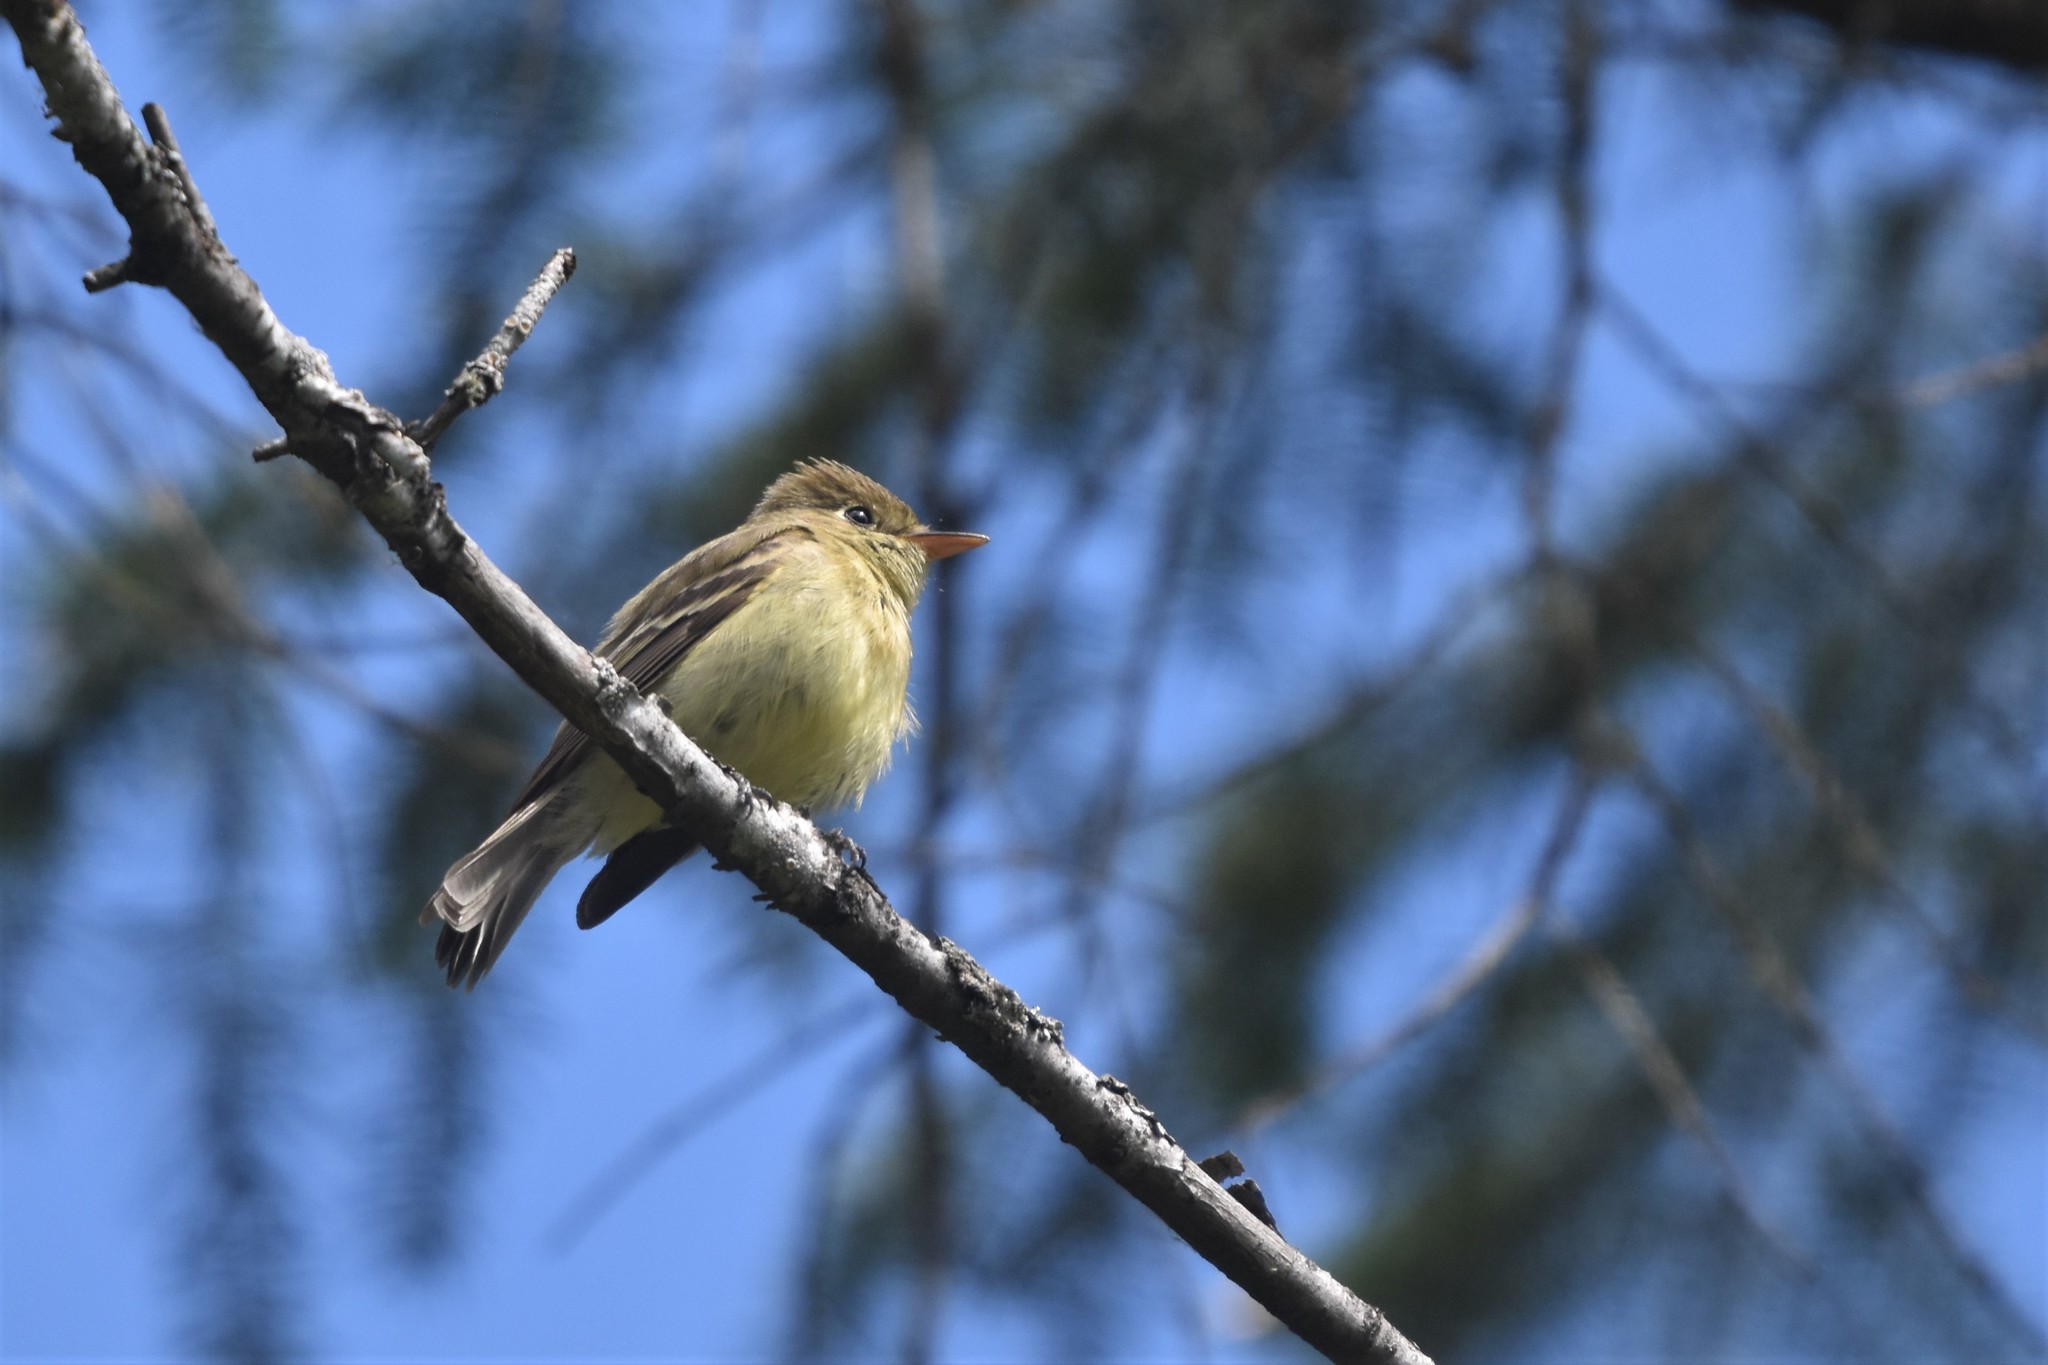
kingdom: Animalia
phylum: Chordata
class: Aves
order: Passeriformes
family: Tyrannidae
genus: Empidonax
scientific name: Empidonax difficilis
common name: Pacific-slope flycatcher
